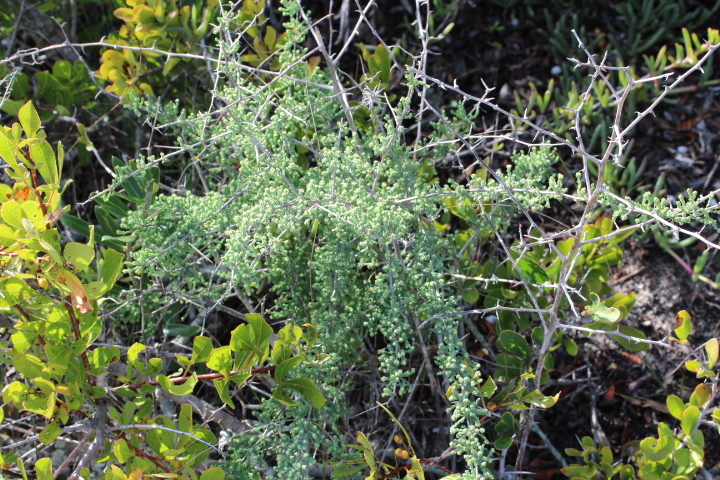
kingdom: Plantae
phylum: Tracheophyta
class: Liliopsida
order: Asparagales
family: Asparagaceae
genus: Asparagus
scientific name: Asparagus capensis
